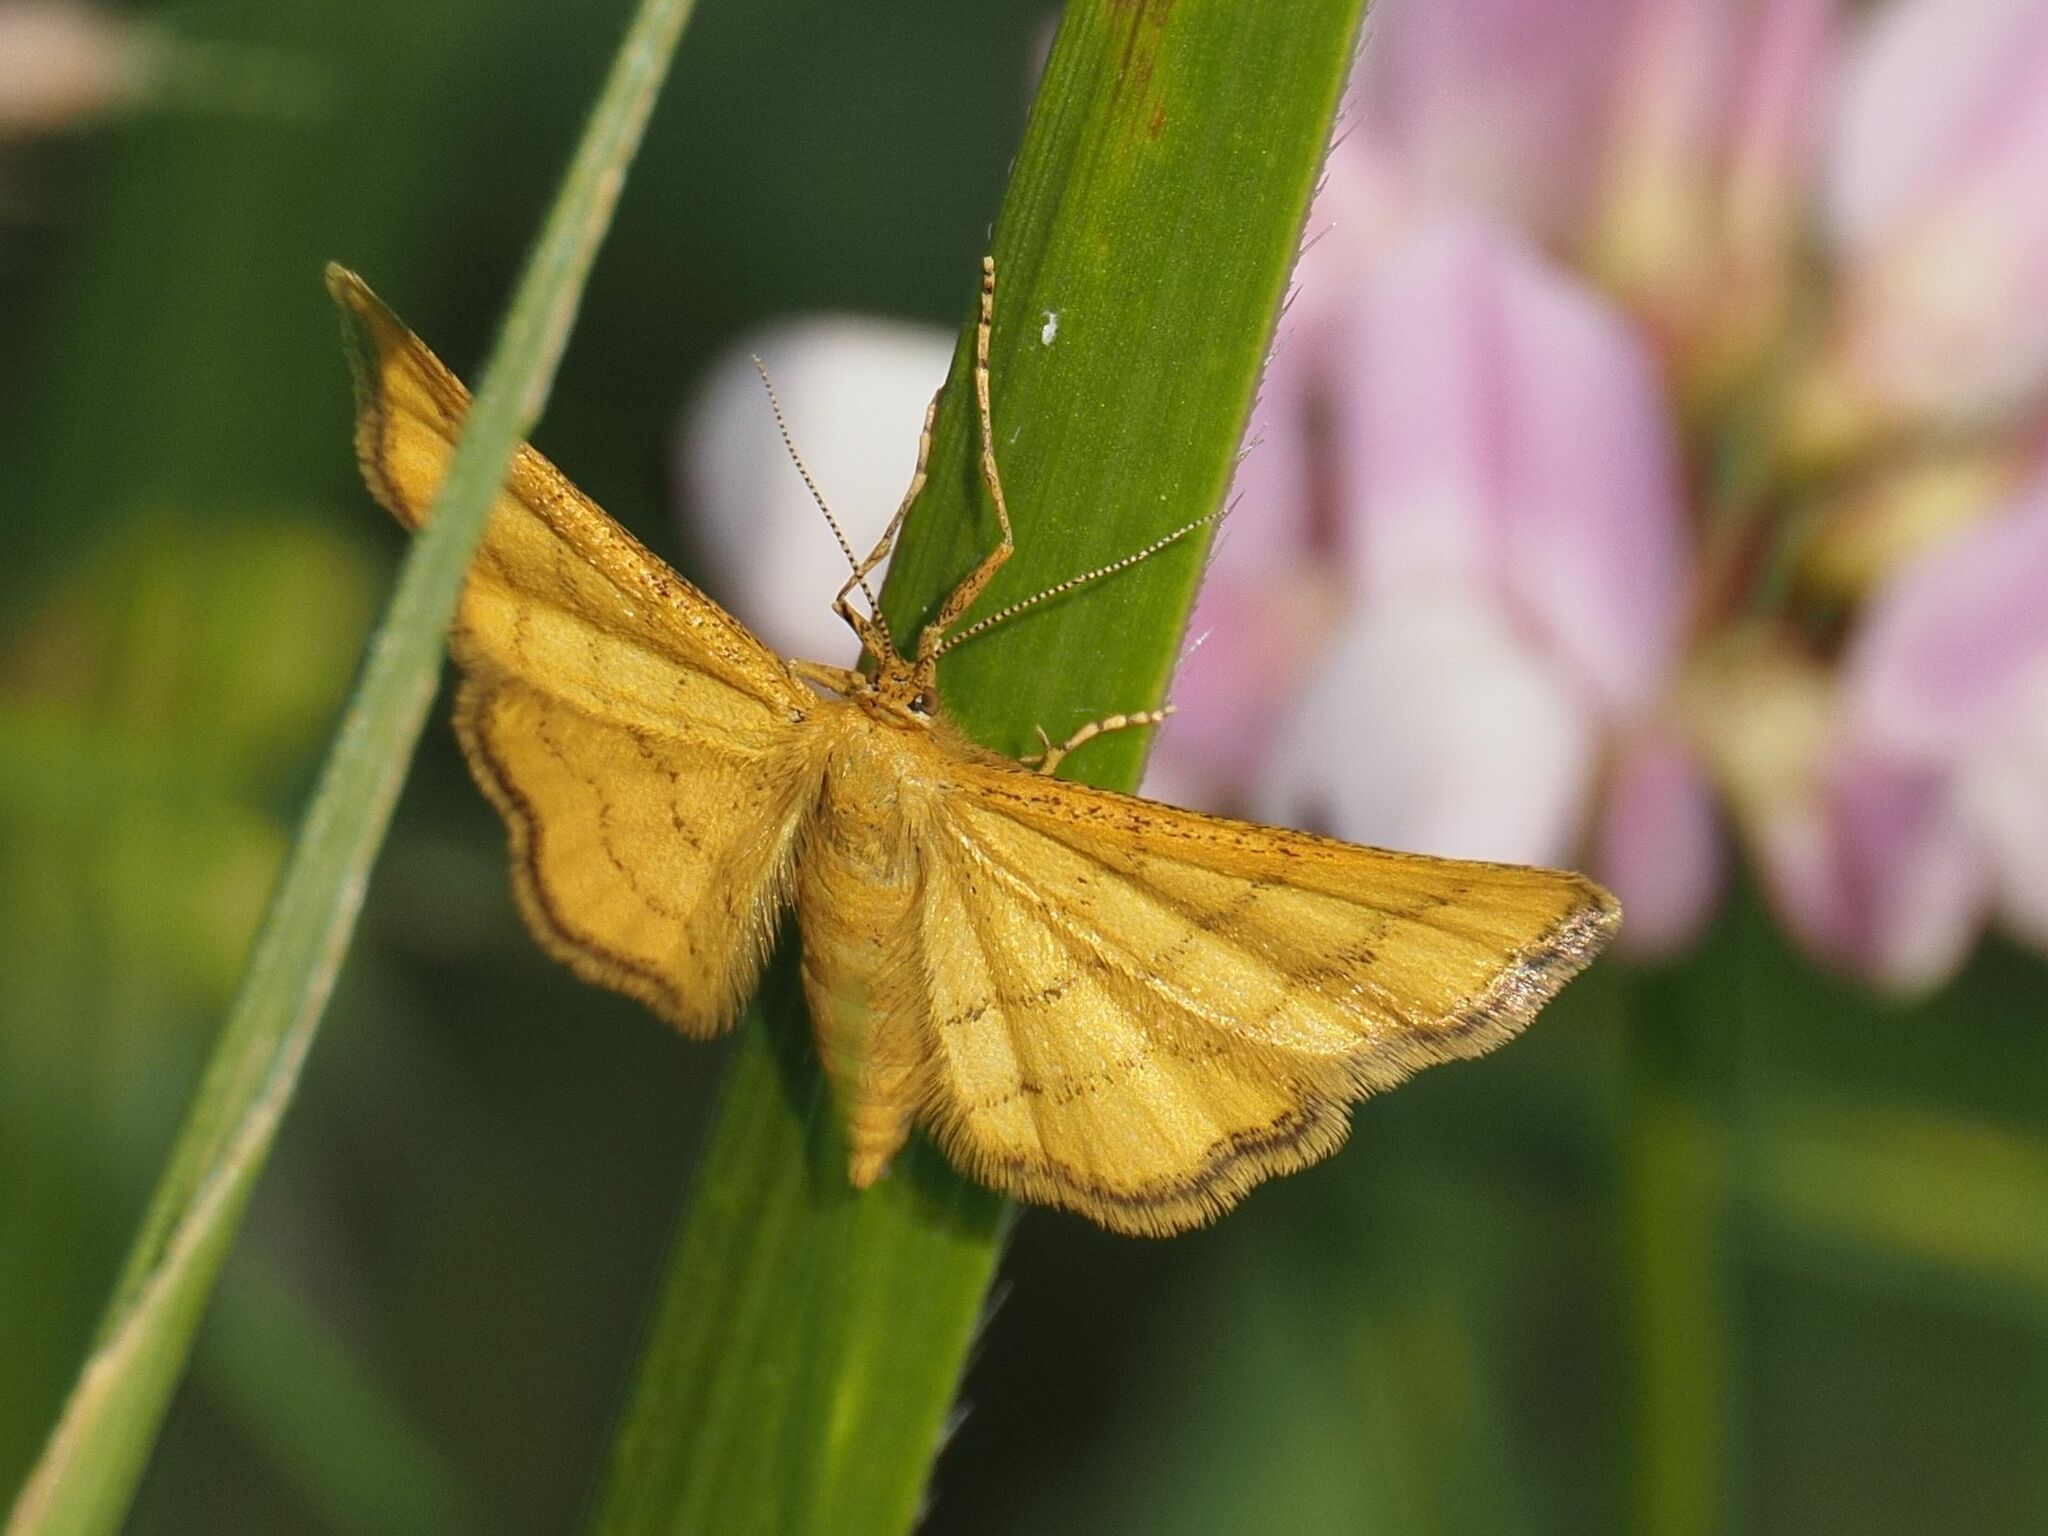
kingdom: Animalia
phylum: Arthropoda
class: Insecta
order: Lepidoptera
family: Geometridae
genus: Idaea
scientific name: Idaea aureolaria
